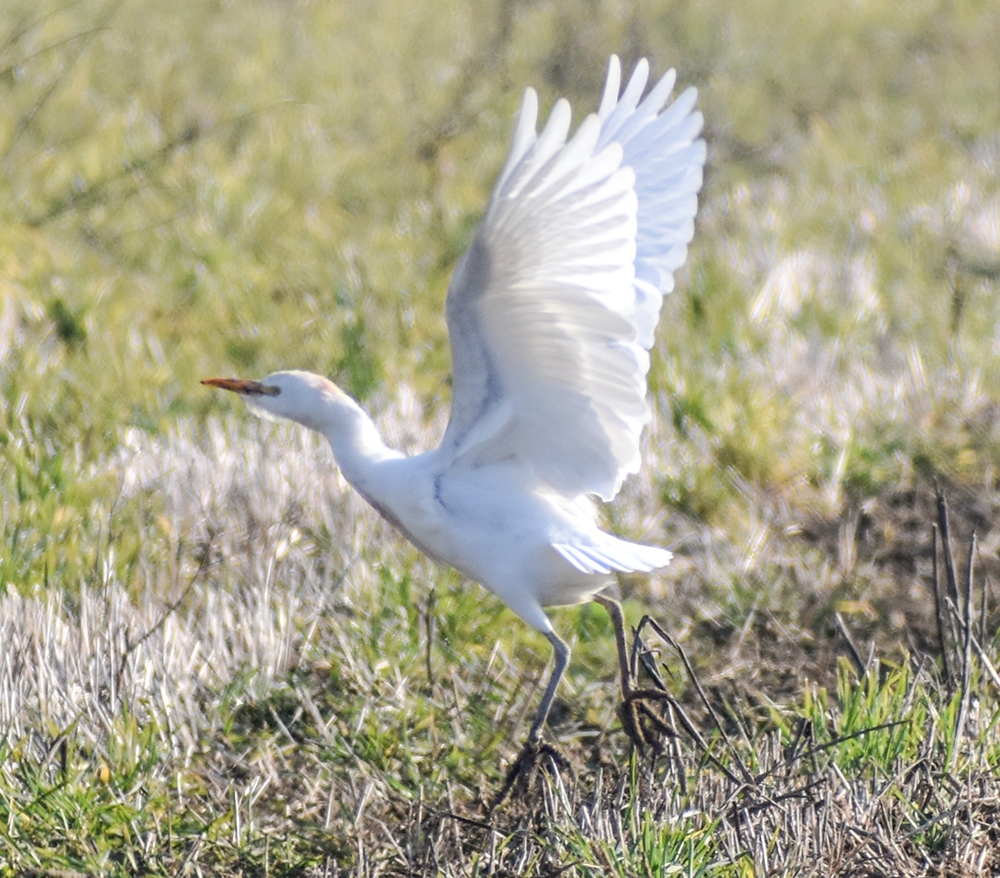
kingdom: Animalia
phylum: Chordata
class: Aves
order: Pelecaniformes
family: Ardeidae
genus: Bubulcus
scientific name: Bubulcus ibis
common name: Cattle egret
